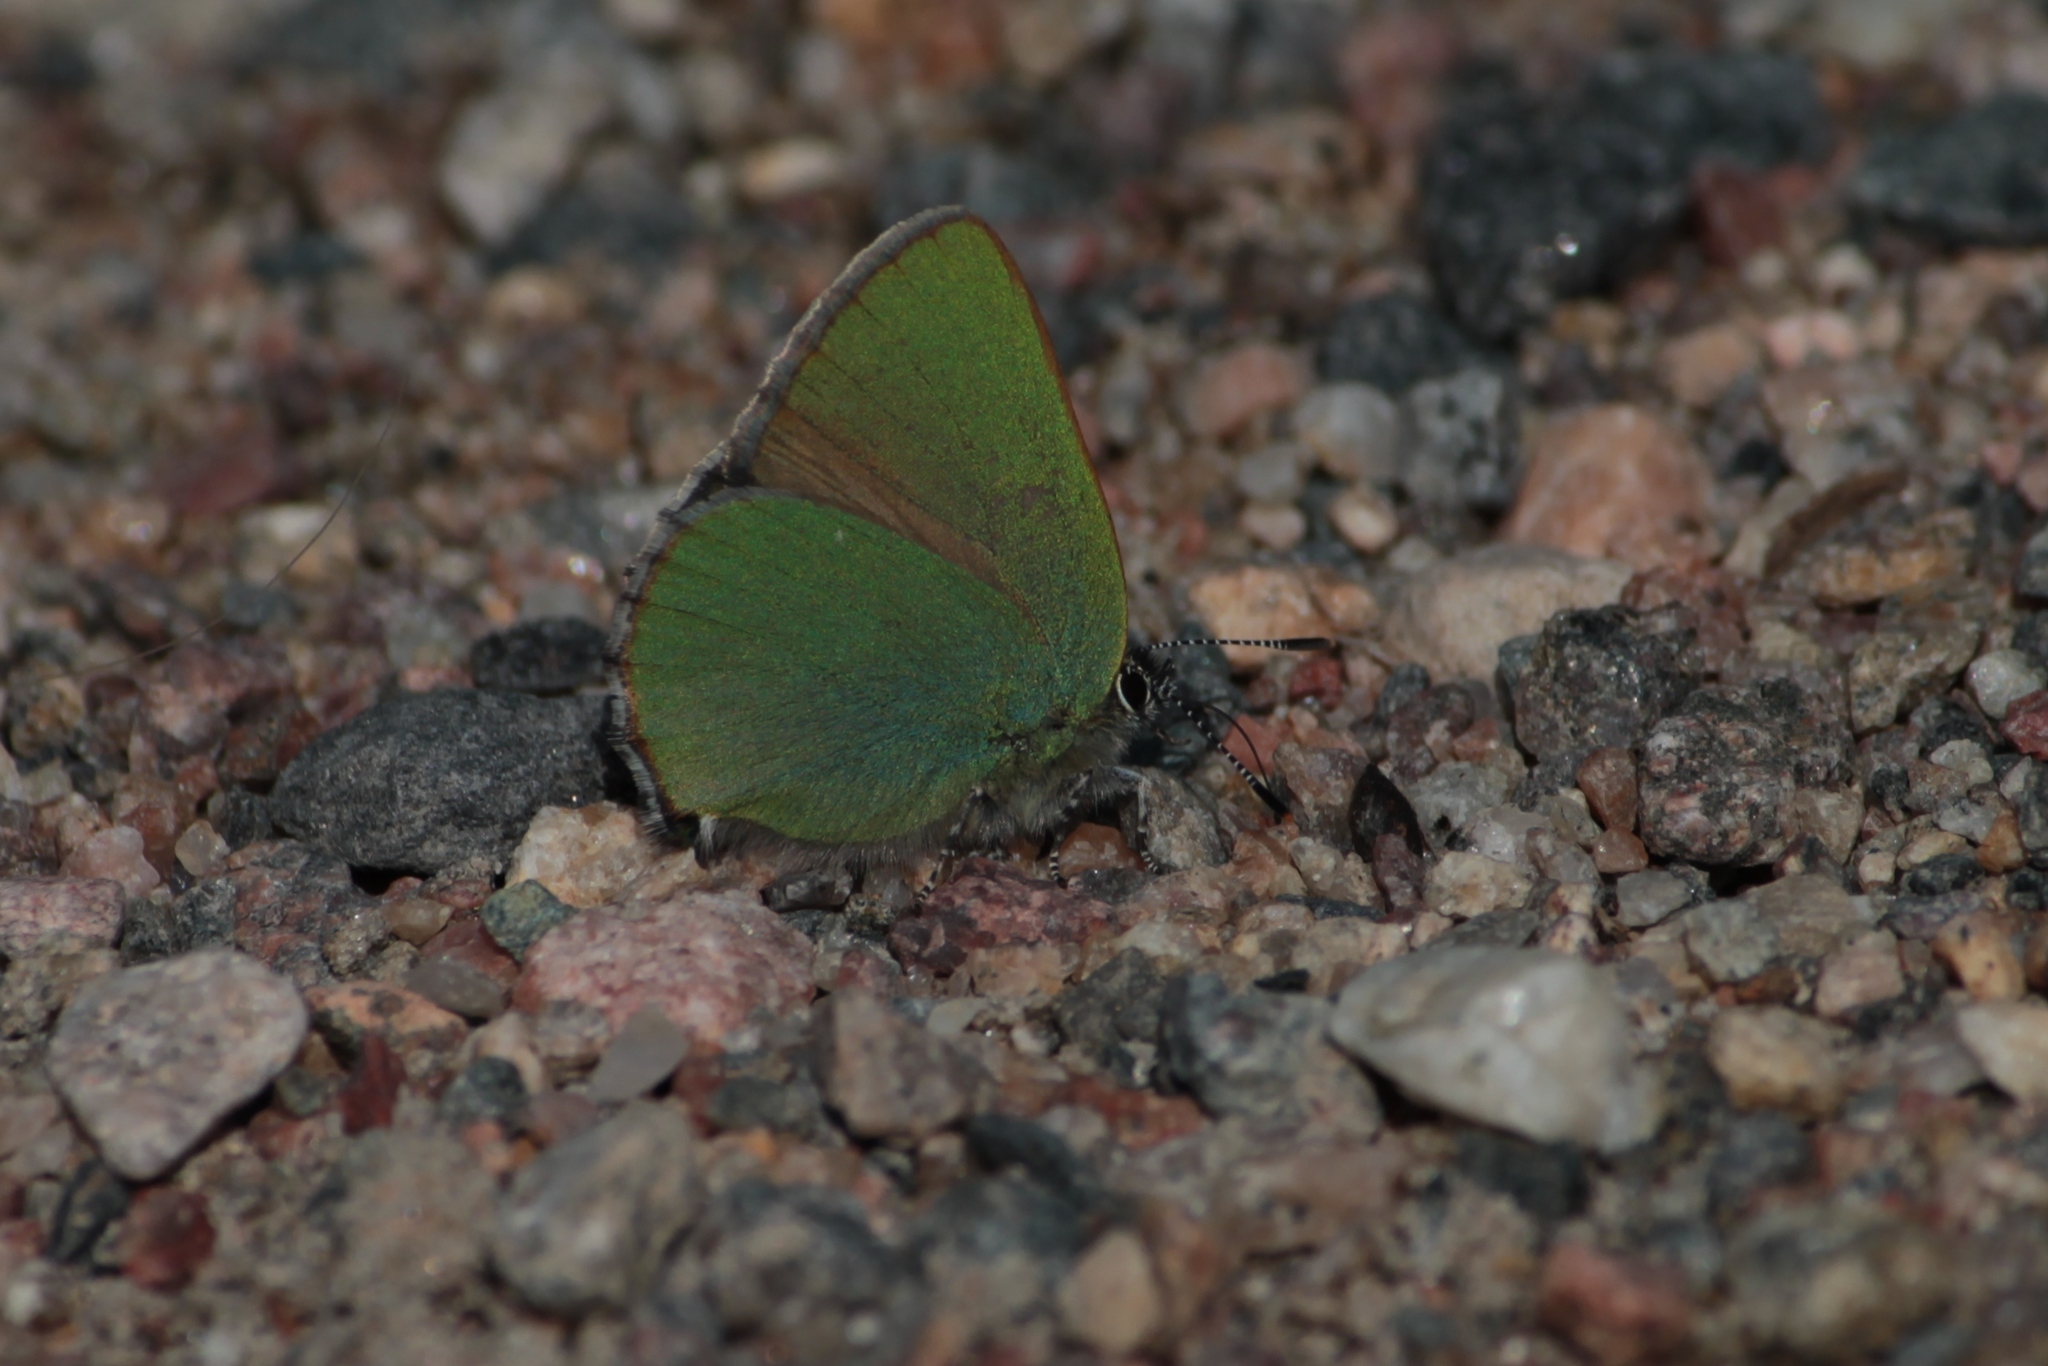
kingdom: Animalia
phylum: Arthropoda
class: Insecta
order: Lepidoptera
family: Lycaenidae
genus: Callophrys
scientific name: Callophrys rubi
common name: Green hairstreak
